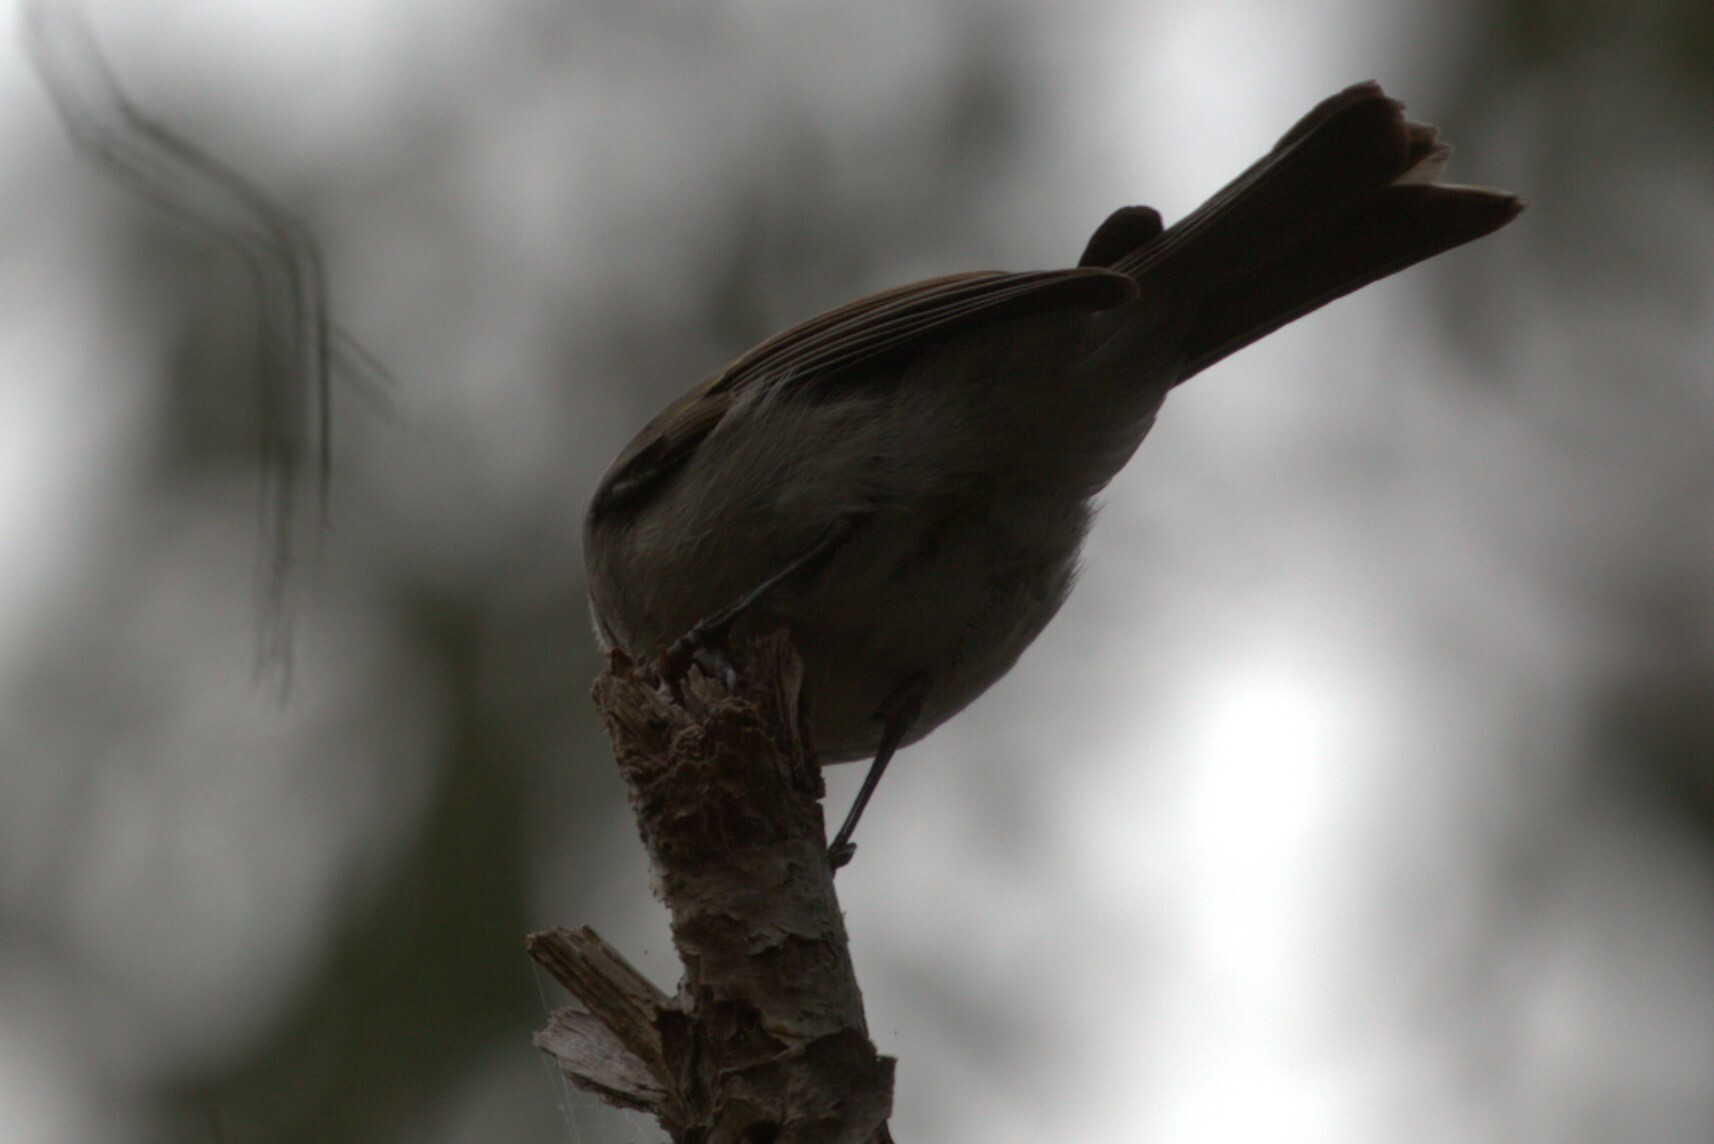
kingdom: Animalia
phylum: Chordata
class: Aves
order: Passeriformes
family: Pachycephalidae
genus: Pachycephala
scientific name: Pachycephala pectoralis
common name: Australian golden whistler
